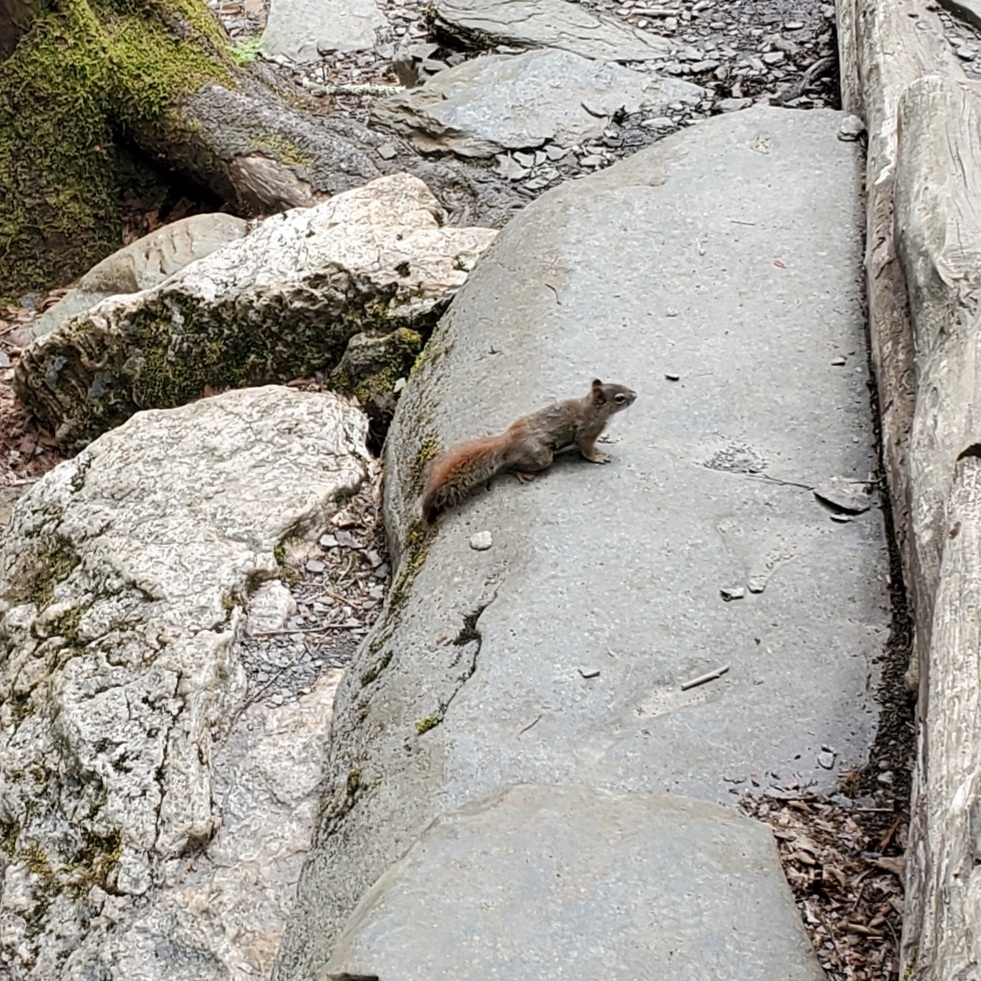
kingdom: Animalia
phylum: Chordata
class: Mammalia
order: Rodentia
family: Sciuridae
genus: Tamiasciurus
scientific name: Tamiasciurus hudsonicus
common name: Red squirrel
